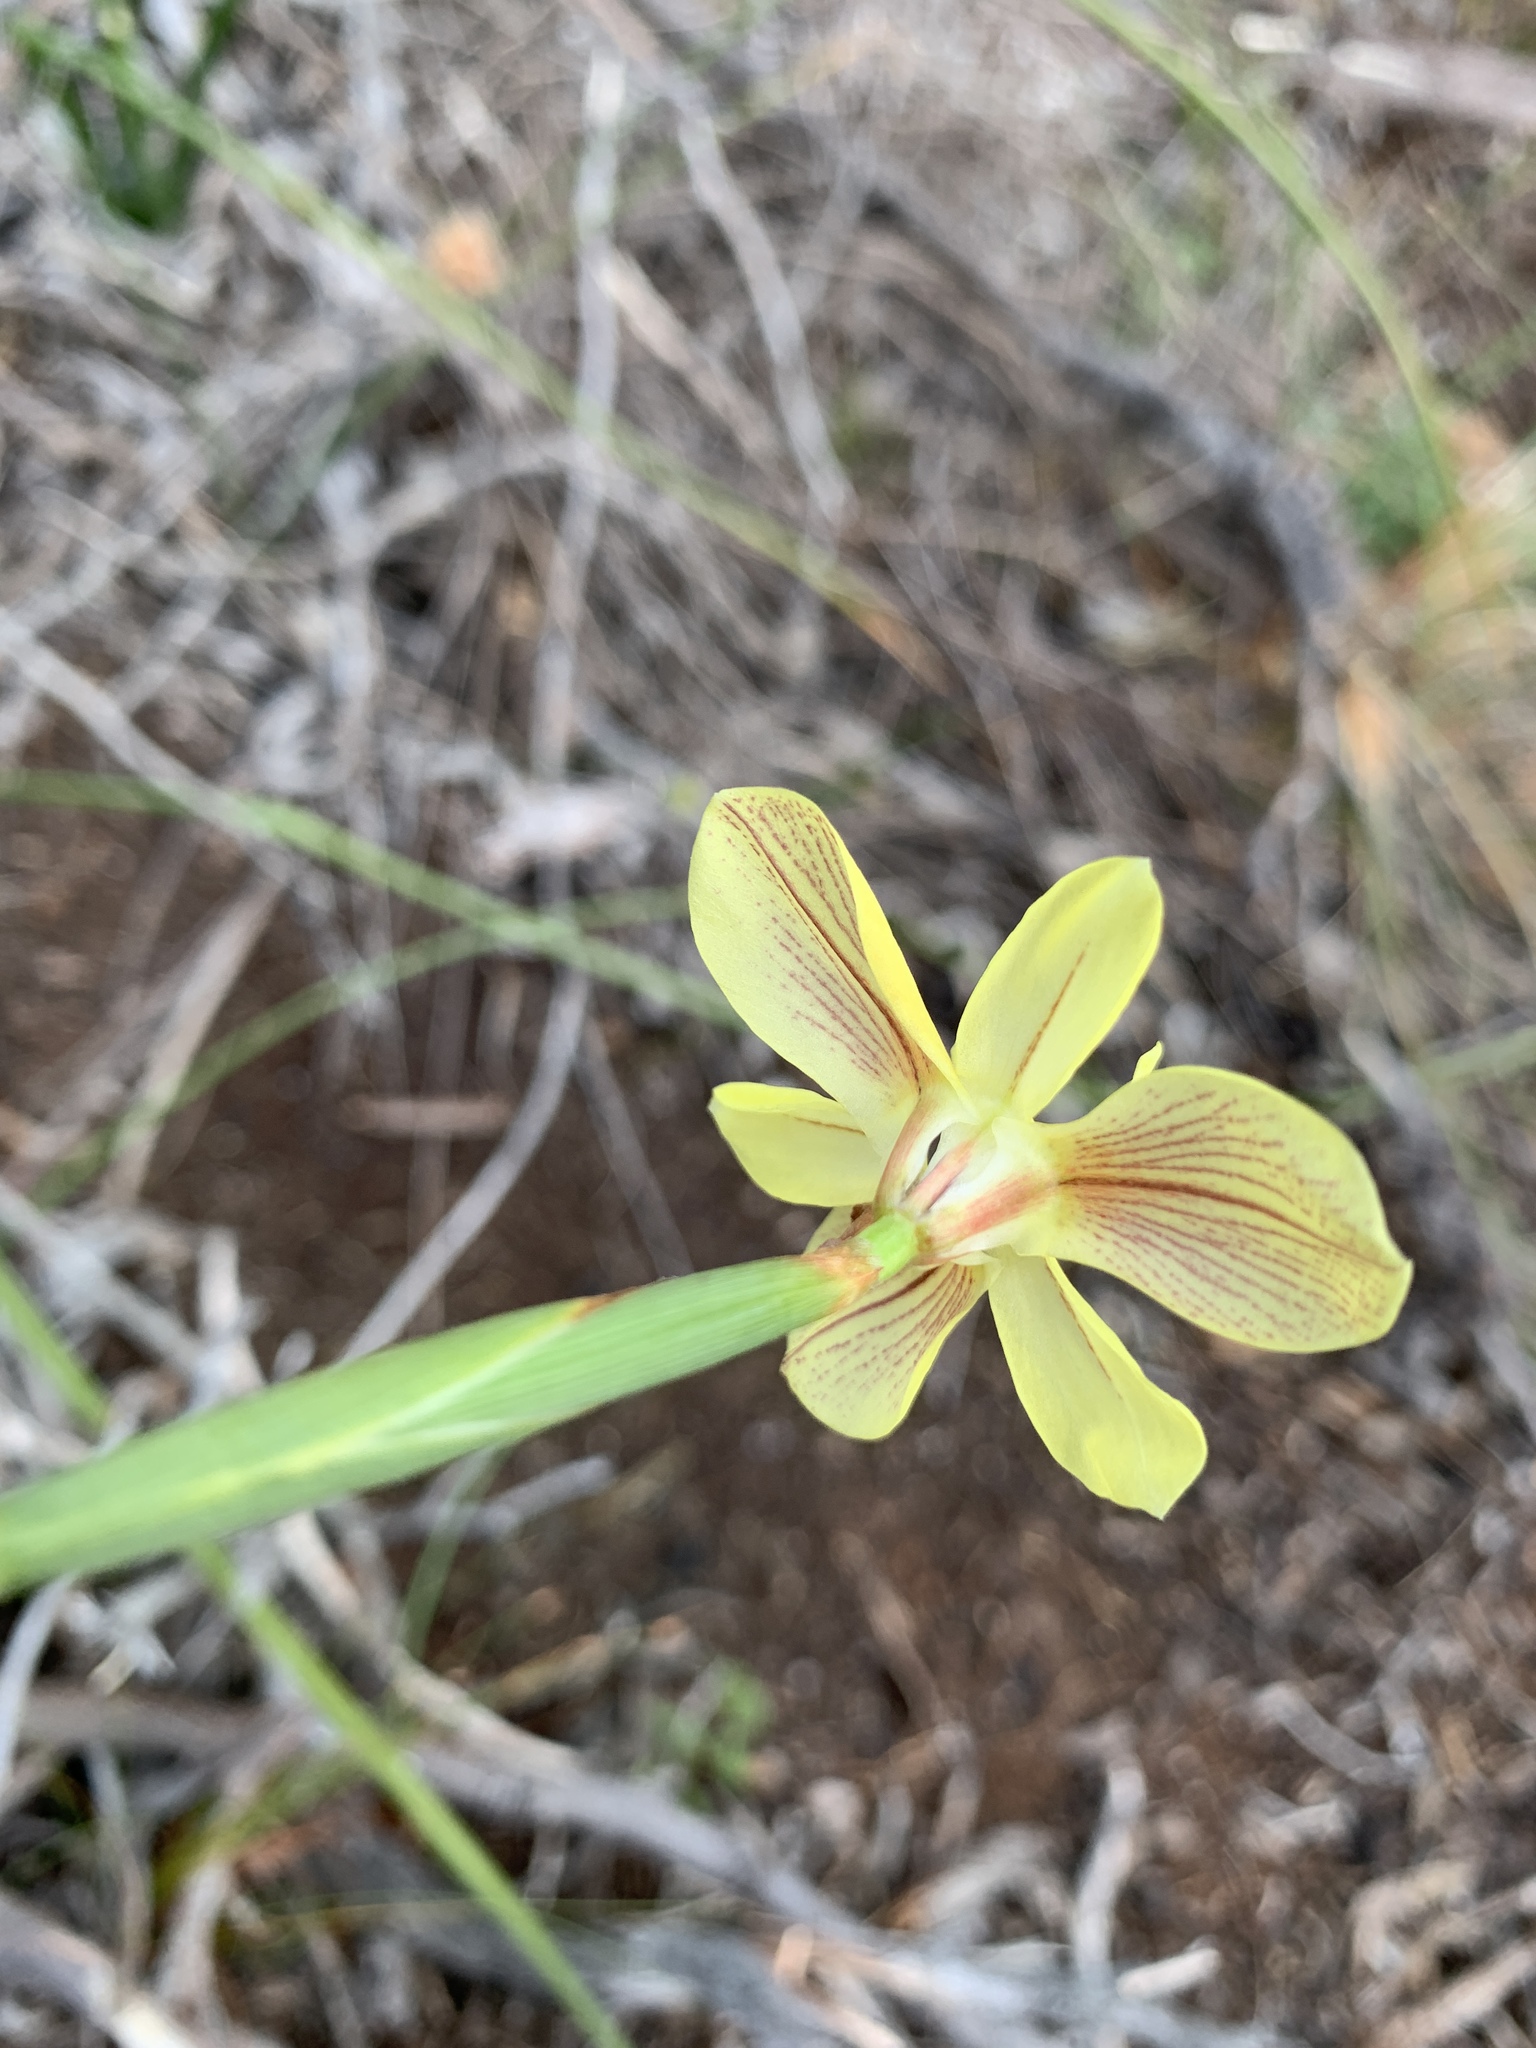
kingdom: Plantae
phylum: Tracheophyta
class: Liliopsida
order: Asparagales
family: Iridaceae
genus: Moraea
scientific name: Moraea bituminosa
